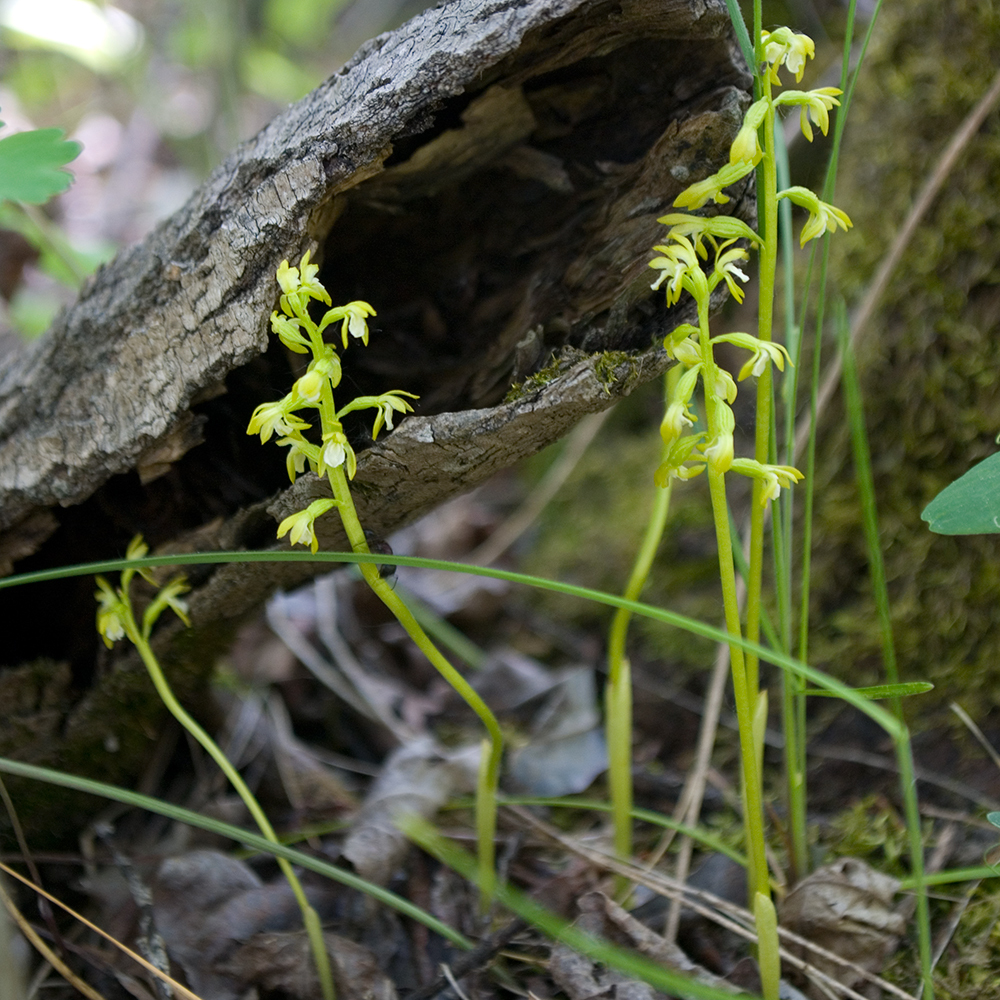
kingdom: Plantae
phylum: Tracheophyta
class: Liliopsida
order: Asparagales
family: Orchidaceae
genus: Corallorhiza
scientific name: Corallorhiza trifida
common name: Yellow coralroot
